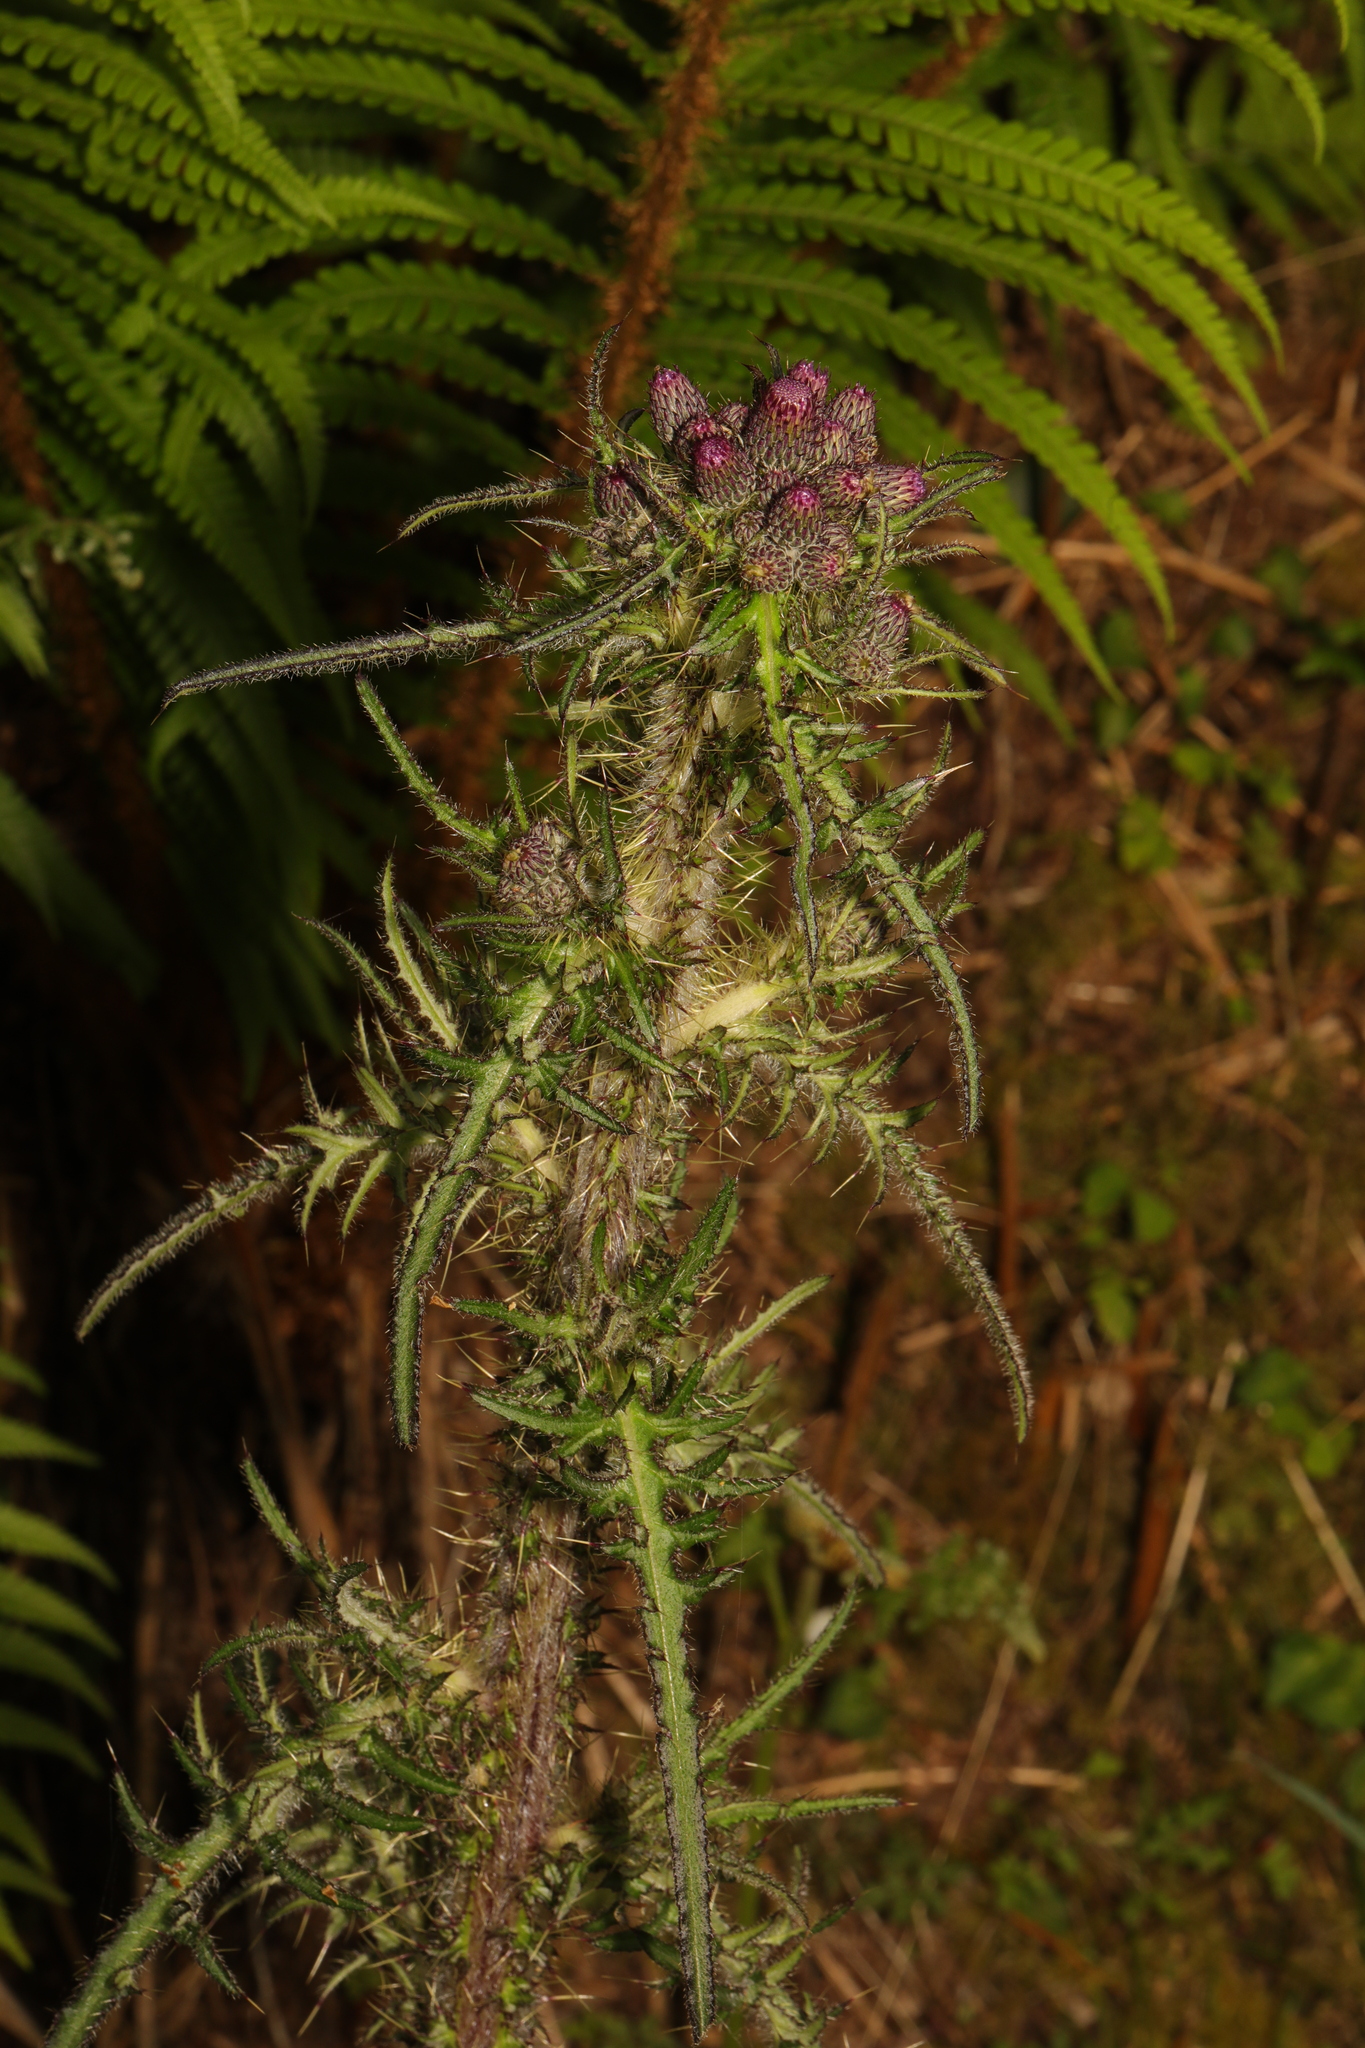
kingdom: Plantae
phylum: Tracheophyta
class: Magnoliopsida
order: Asterales
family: Asteraceae
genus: Cirsium
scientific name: Cirsium palustre
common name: Marsh thistle
